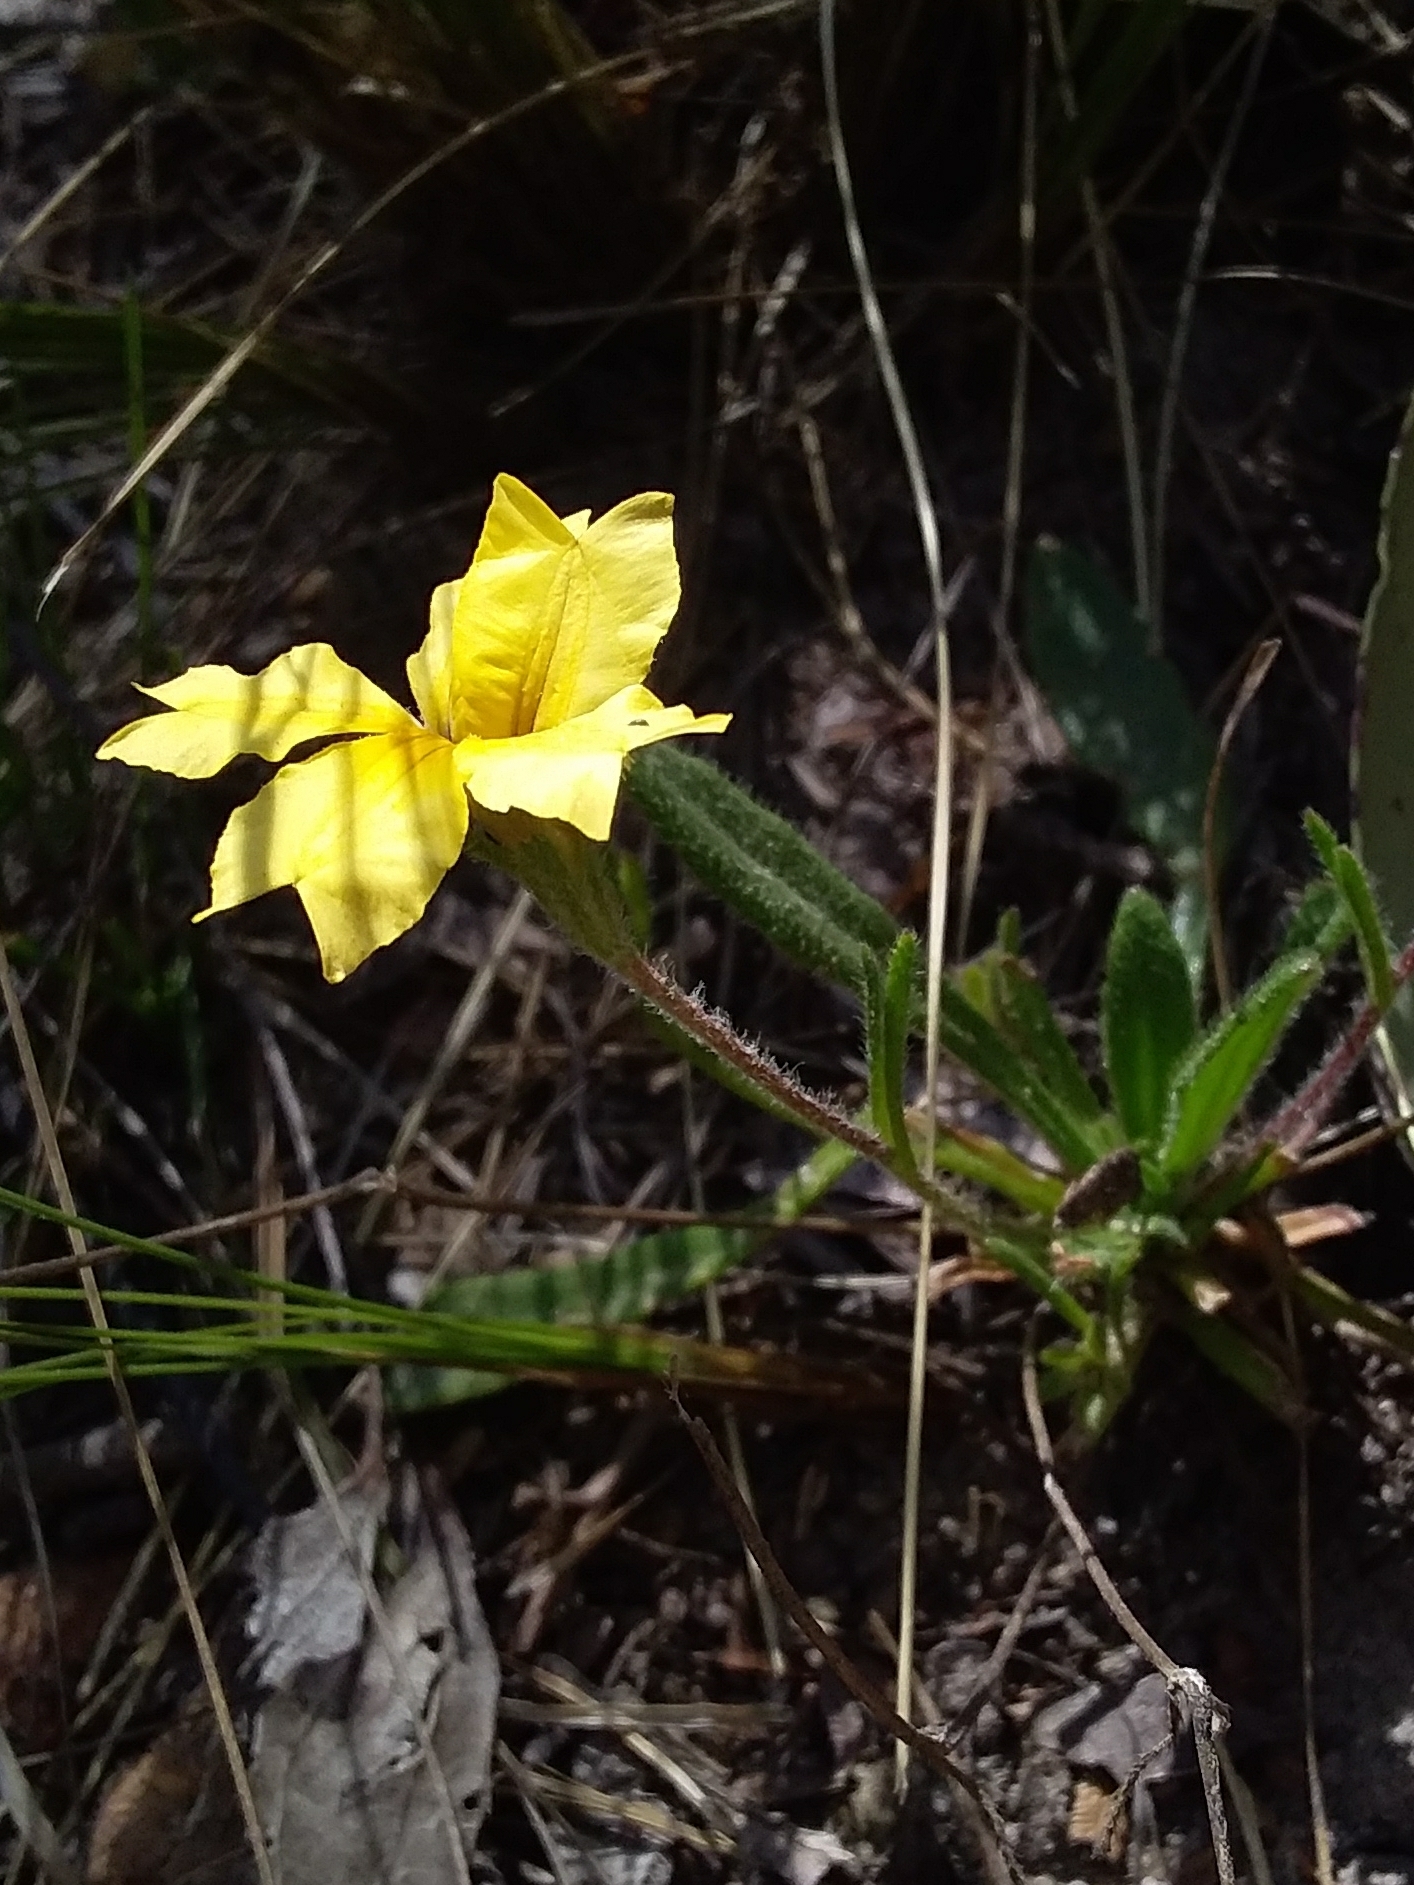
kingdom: Plantae
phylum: Tracheophyta
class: Magnoliopsida
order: Asterales
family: Goodeniaceae
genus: Goodenia
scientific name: Goodenia geniculata
